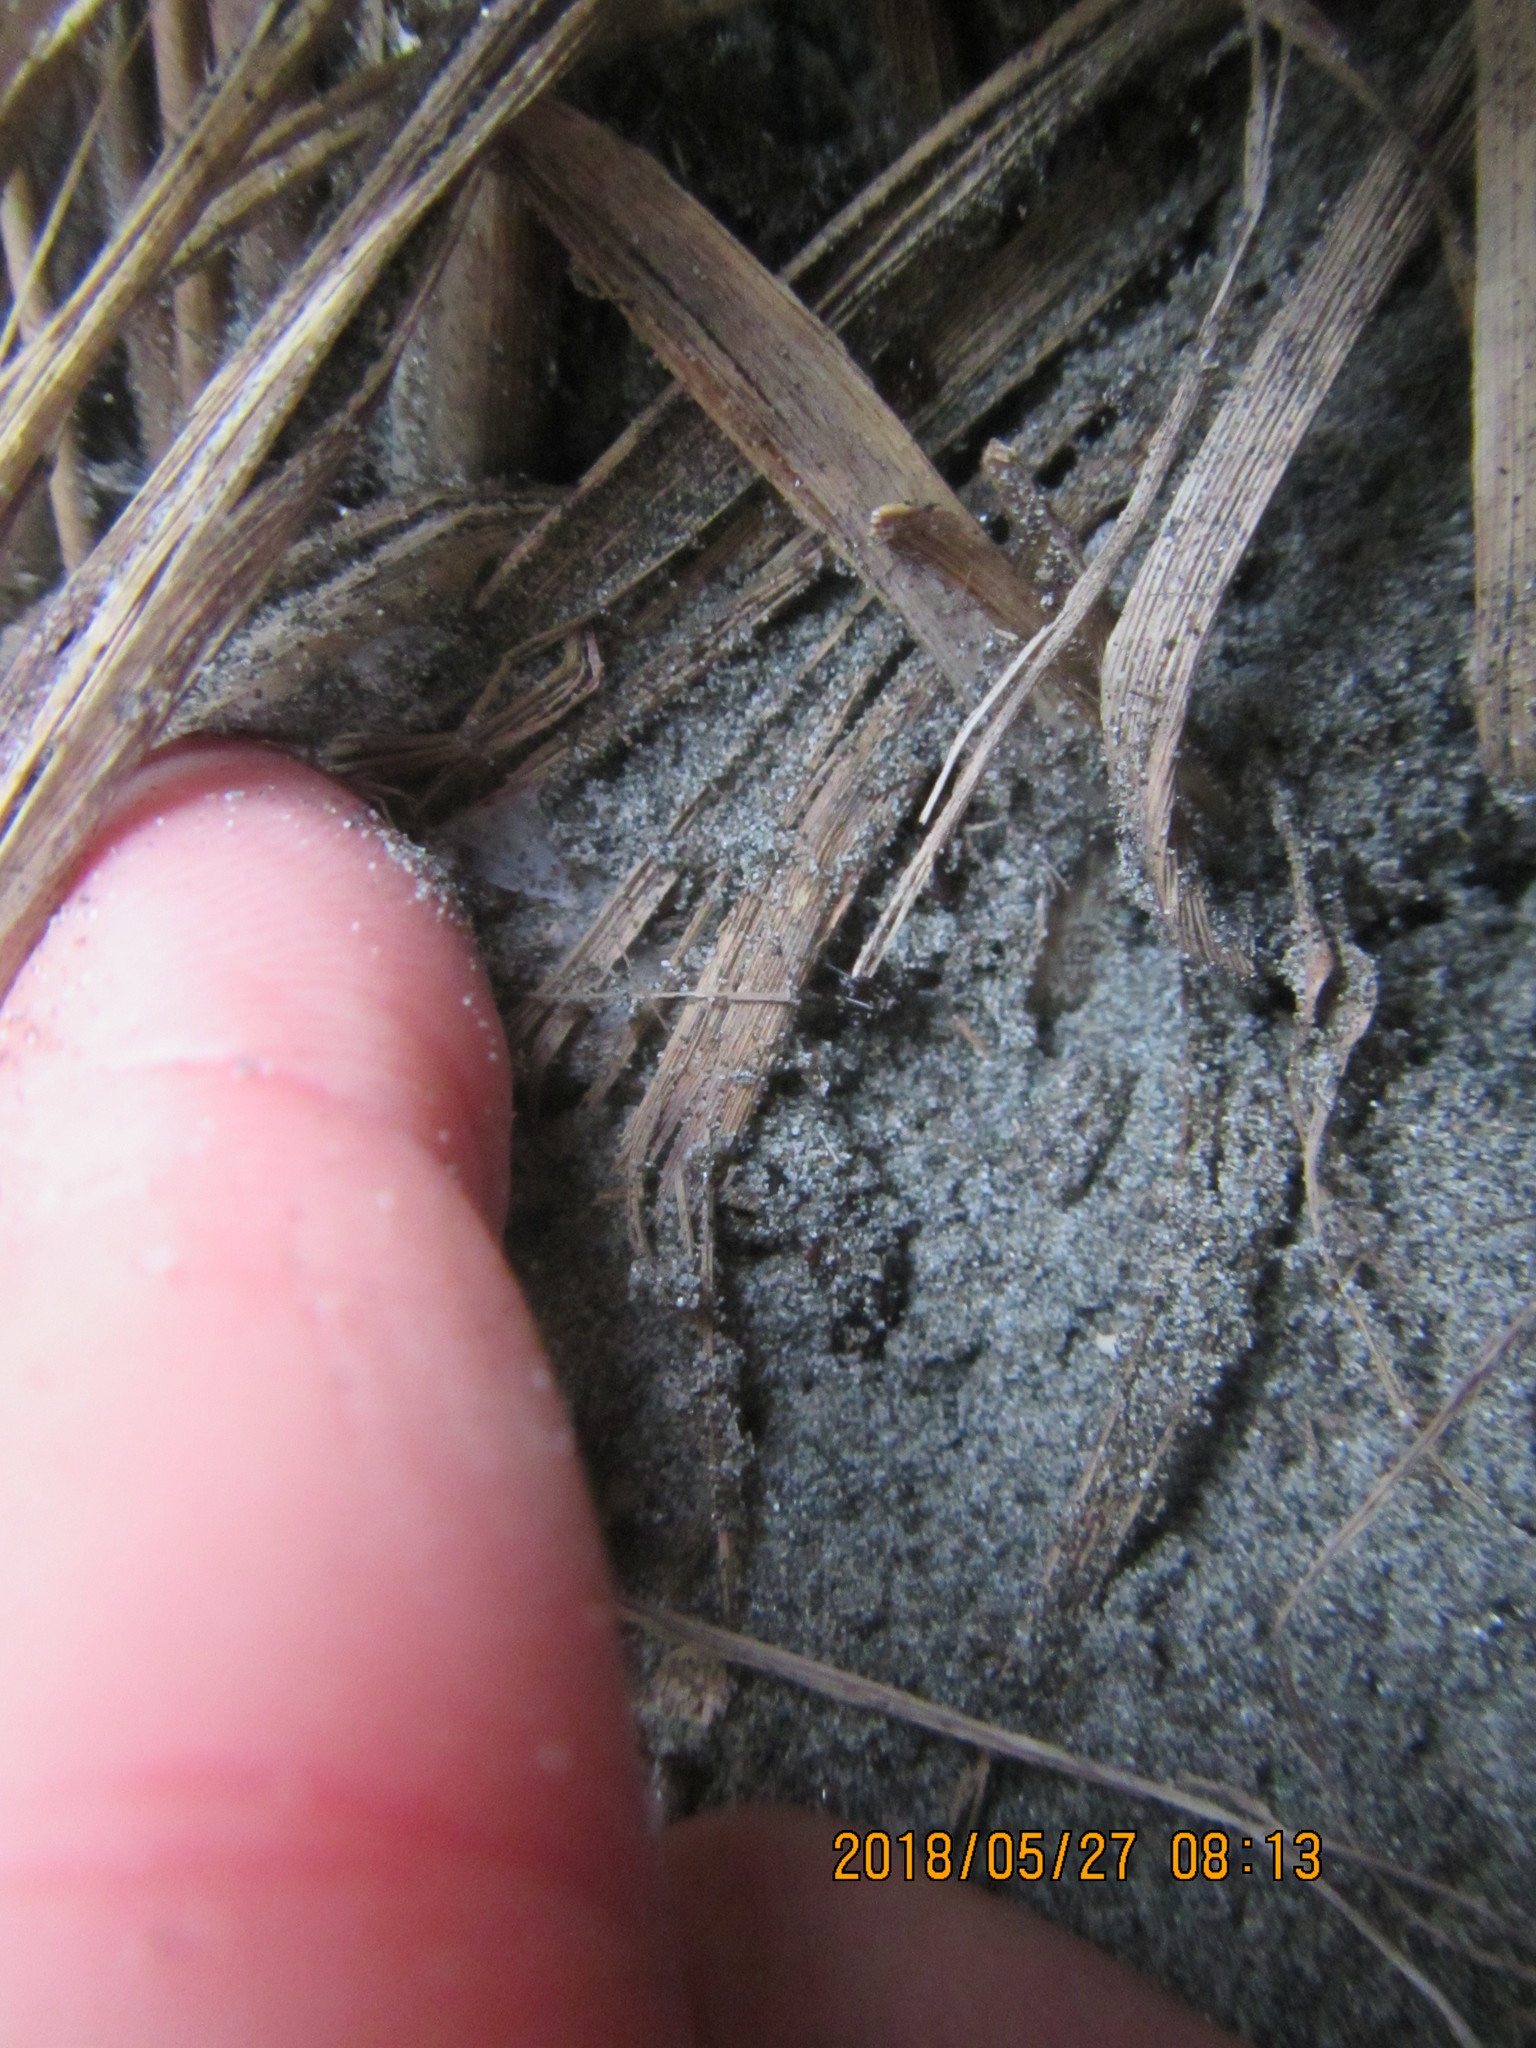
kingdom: Animalia
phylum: Arthropoda
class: Arachnida
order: Araneae
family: Theridiidae
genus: Steatoda
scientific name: Steatoda capensis
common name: Cobweb weaver
